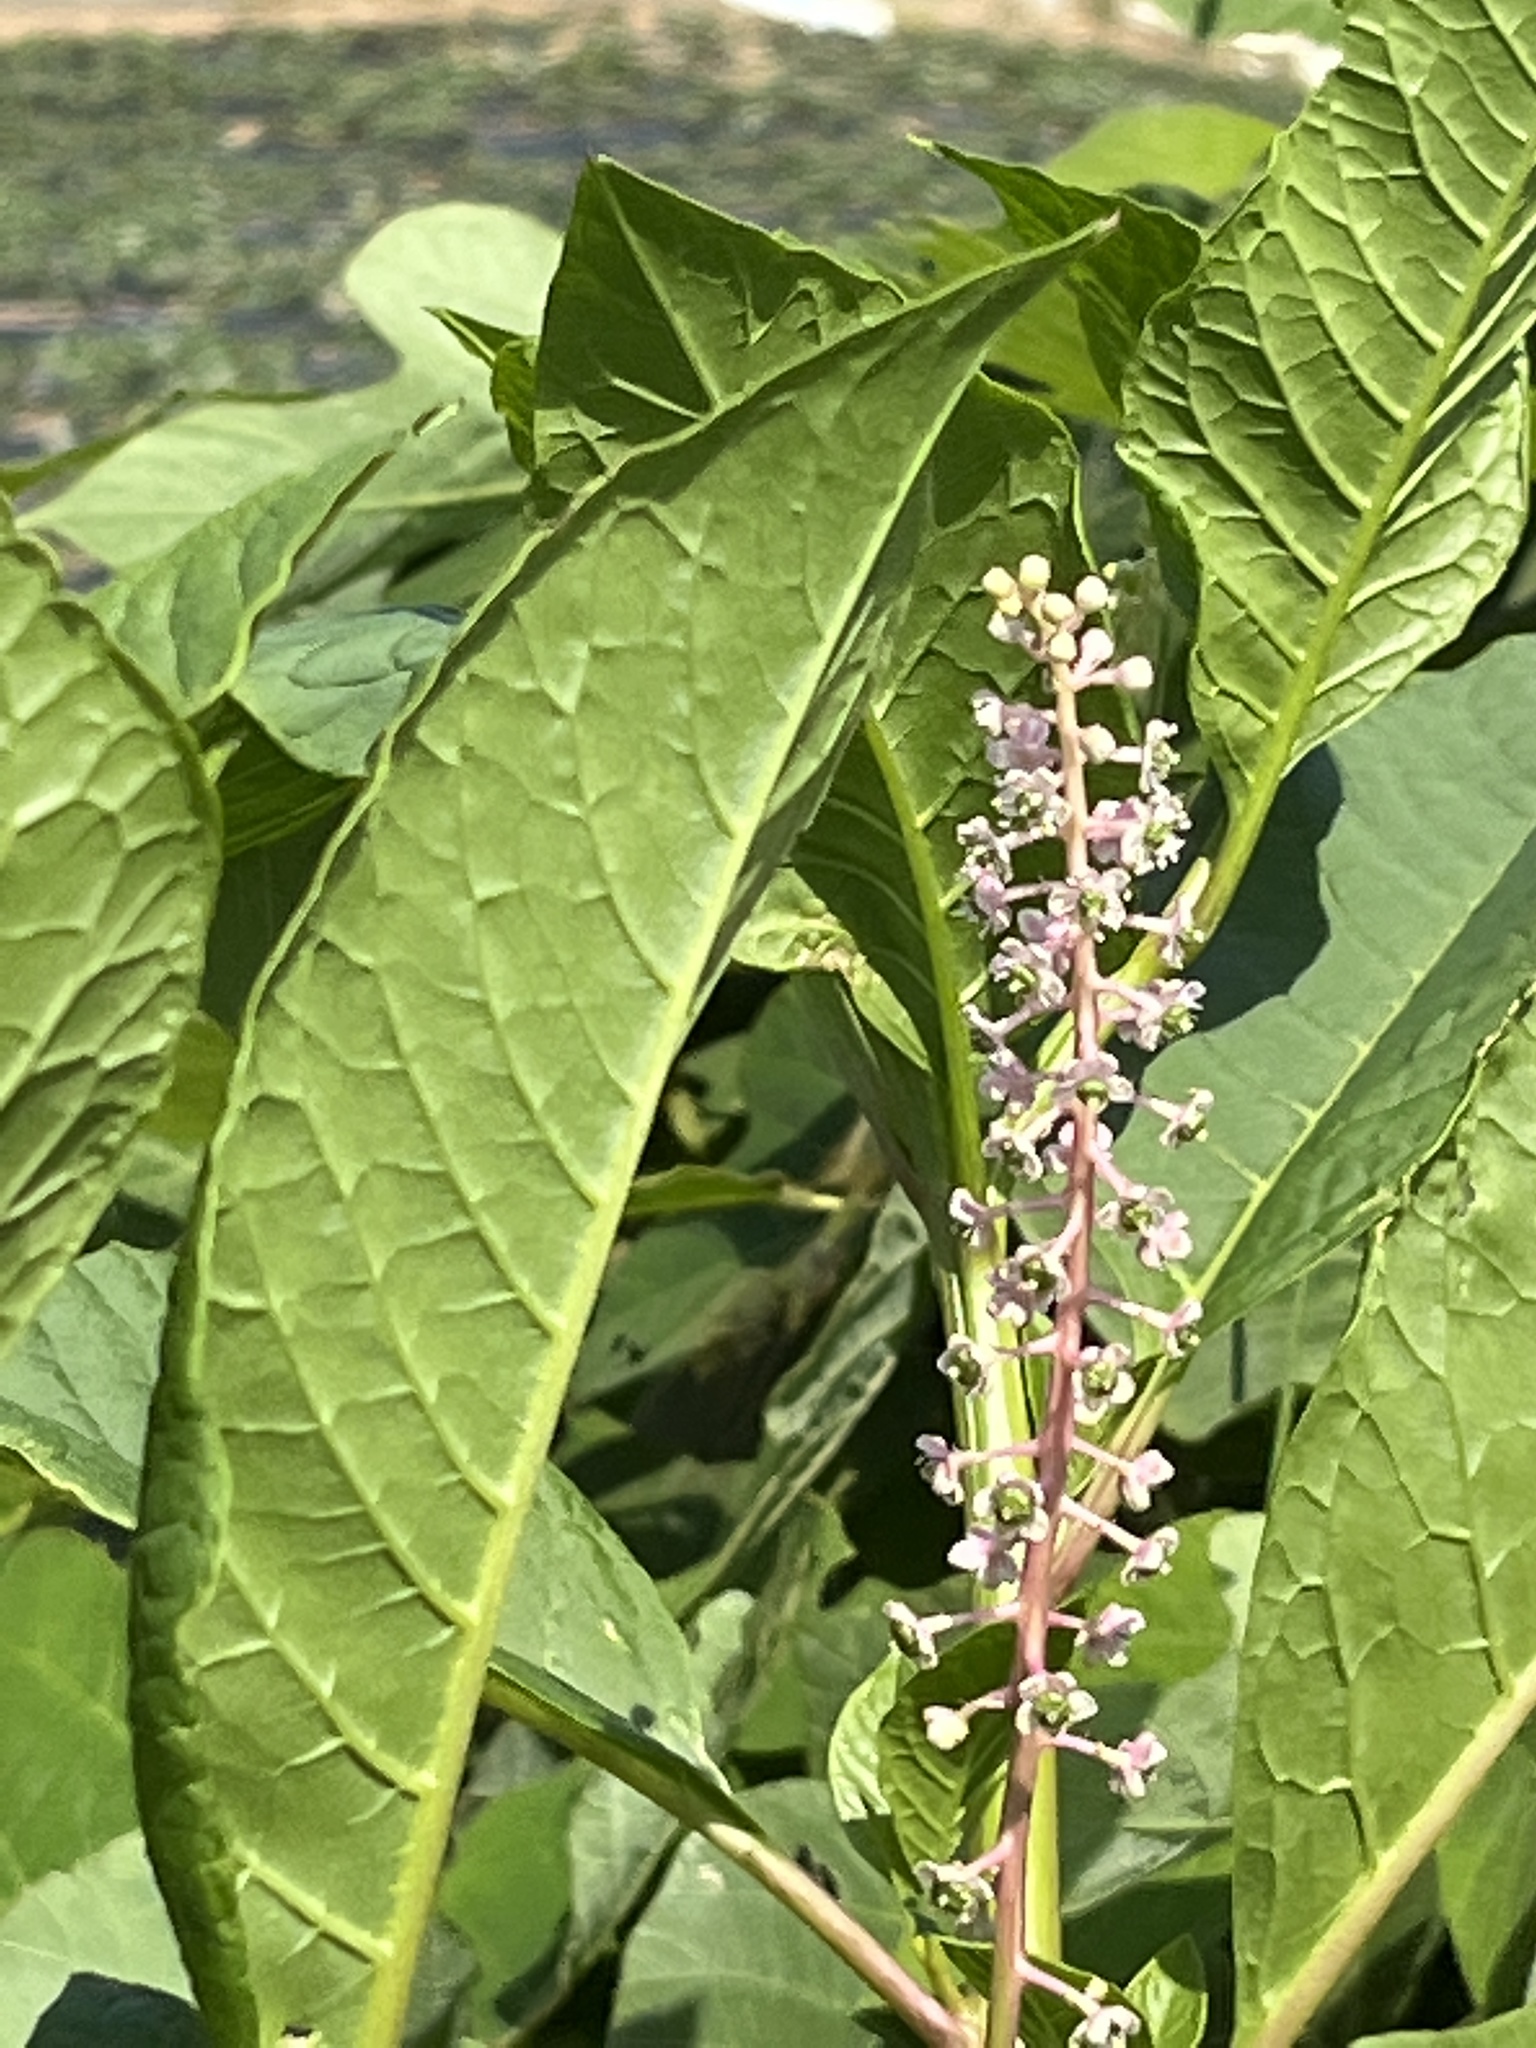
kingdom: Plantae
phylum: Tracheophyta
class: Magnoliopsida
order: Caryophyllales
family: Phytolaccaceae
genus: Phytolacca
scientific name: Phytolacca americana
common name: American pokeweed
